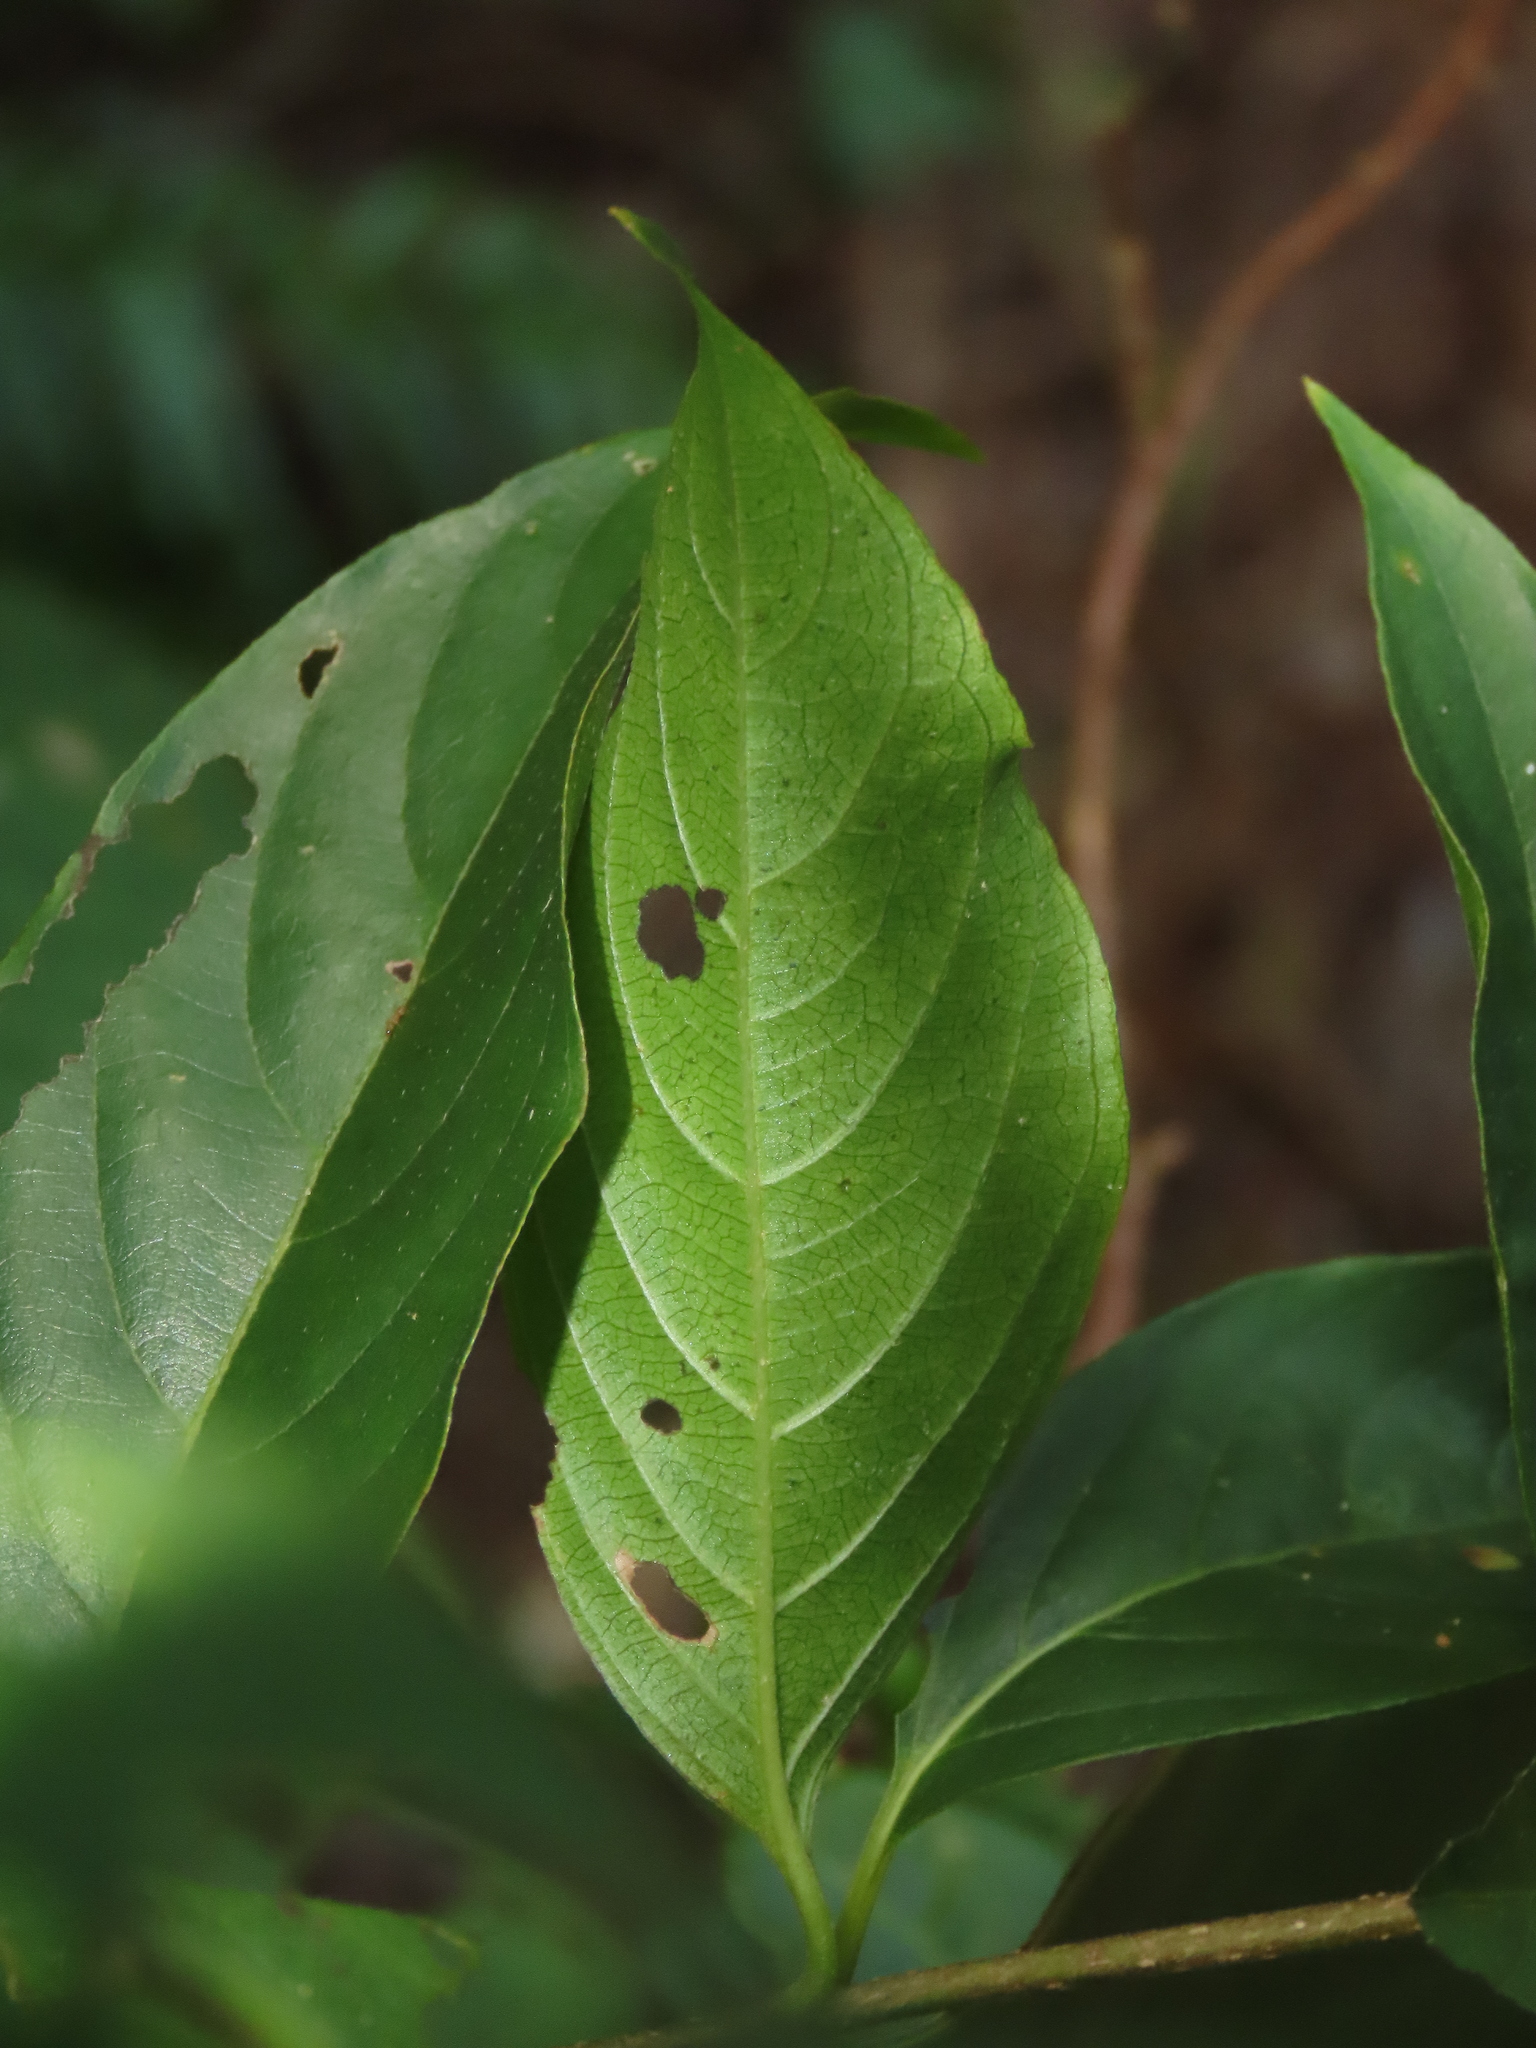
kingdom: Plantae
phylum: Tracheophyta
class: Magnoliopsida
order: Gentianales
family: Rubiaceae
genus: Mussaenda
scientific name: Mussaenda formosana
